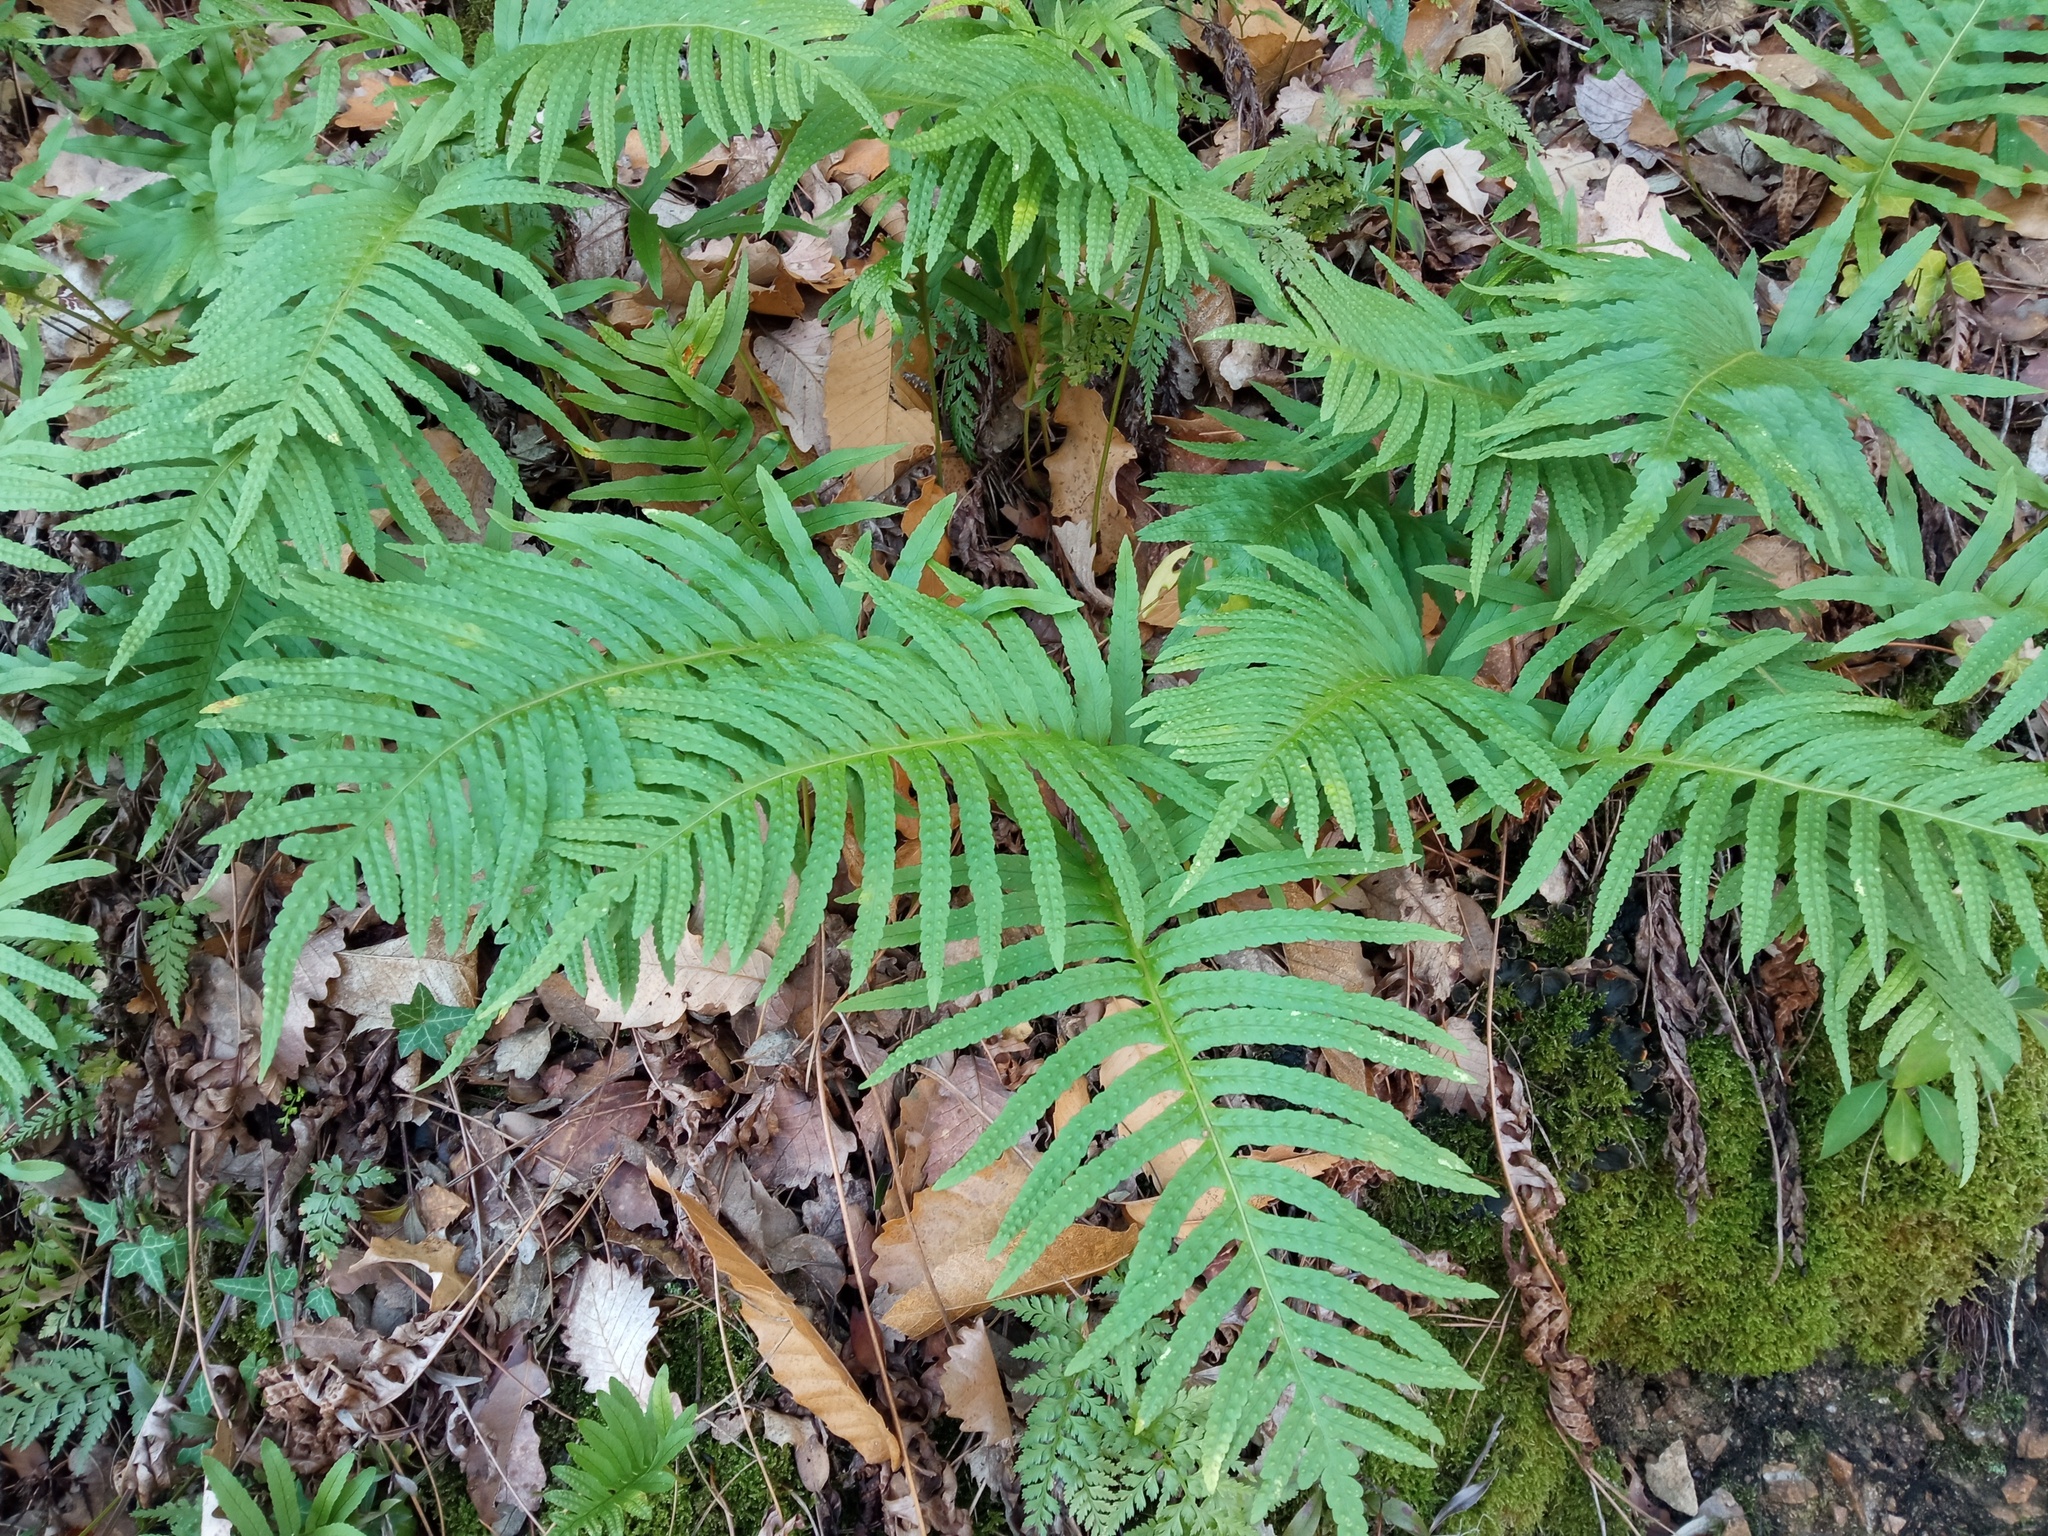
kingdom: Plantae
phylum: Tracheophyta
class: Polypodiopsida
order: Polypodiales
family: Polypodiaceae
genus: Polypodium
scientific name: Polypodium cambricum
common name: Southern polypody
